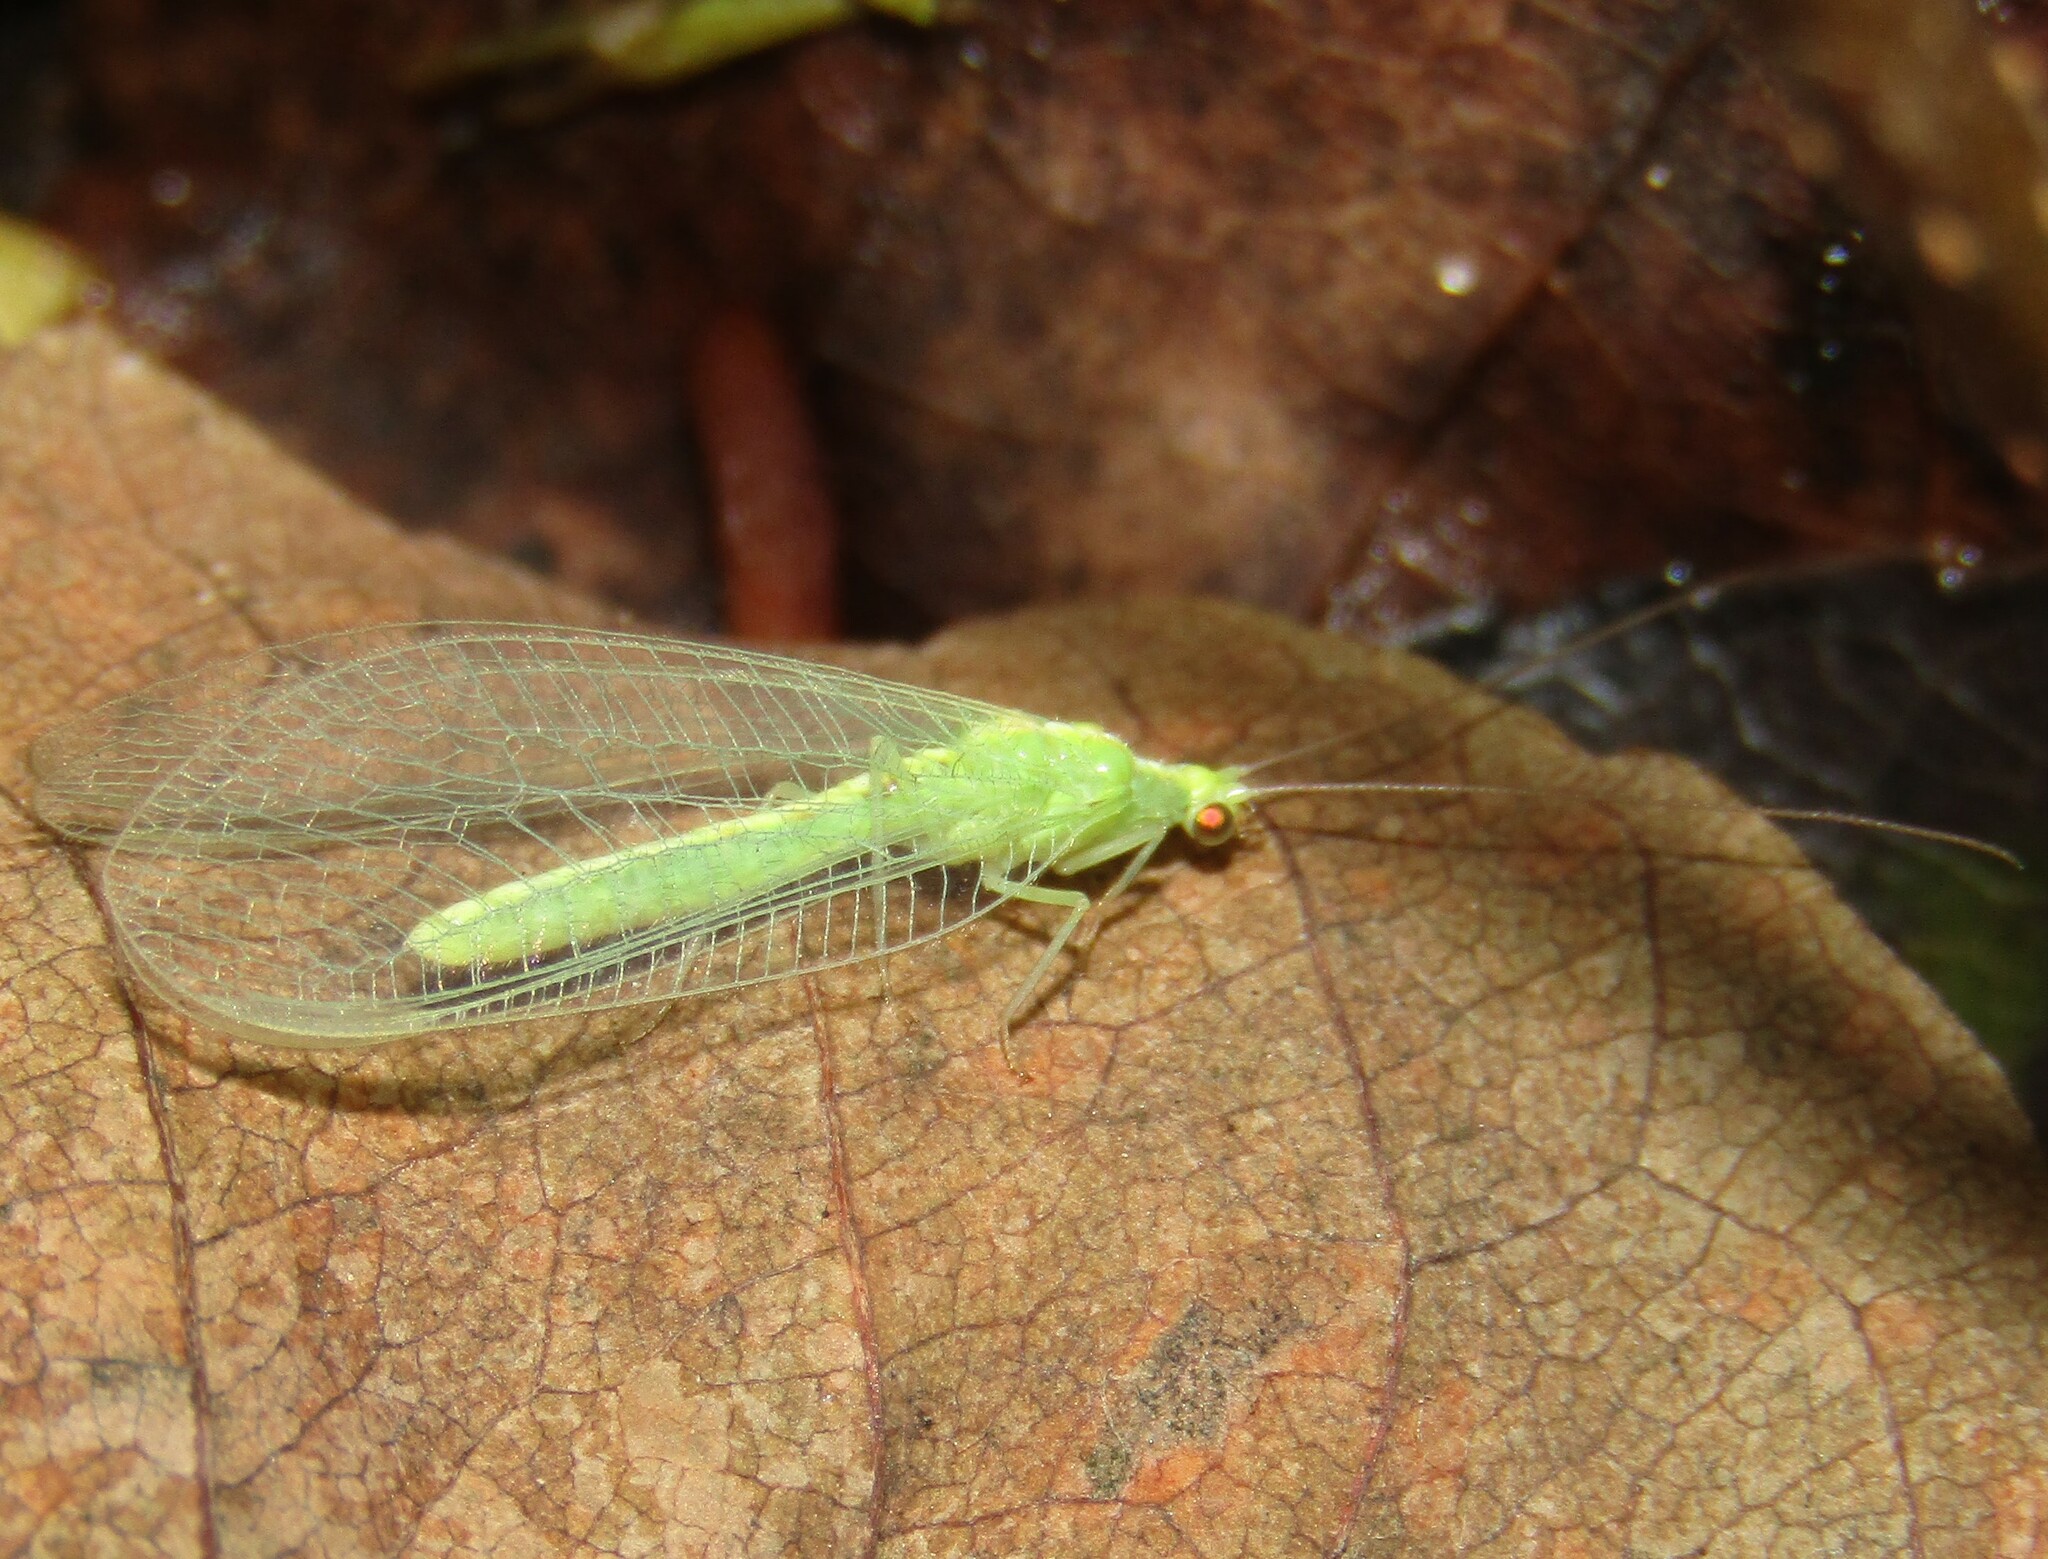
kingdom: Animalia
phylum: Arthropoda
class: Insecta
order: Neuroptera
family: Chrysopidae
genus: Chrysoperla
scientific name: Chrysoperla
